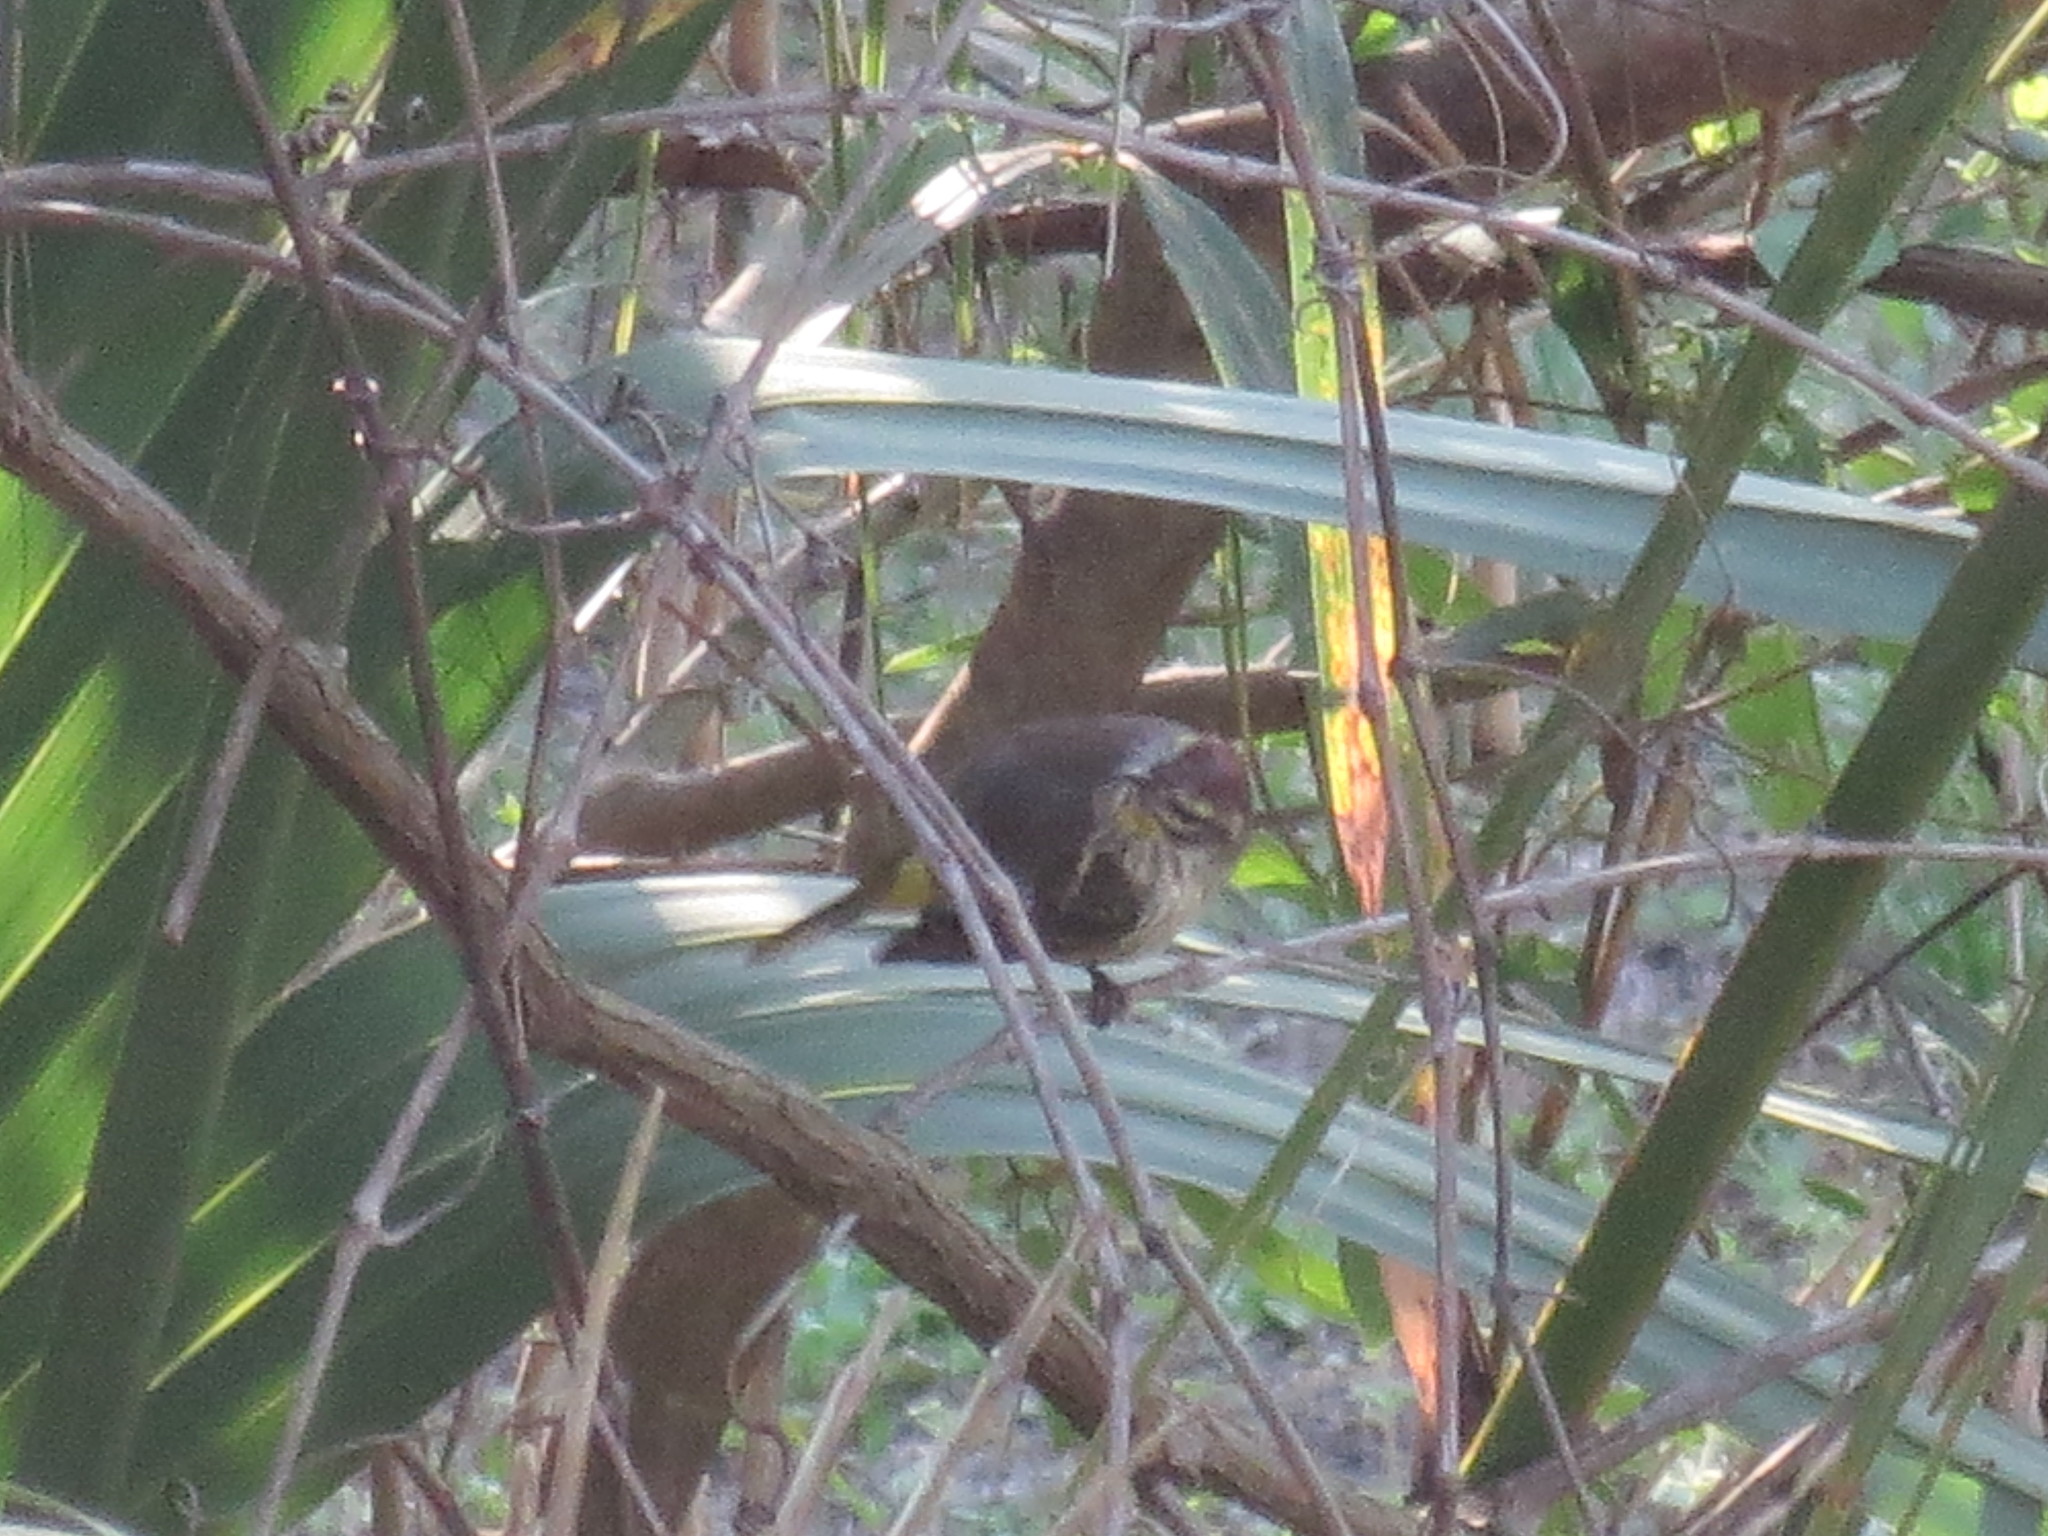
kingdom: Animalia
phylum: Chordata
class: Aves
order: Passeriformes
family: Parulidae
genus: Setophaga
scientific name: Setophaga palmarum
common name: Palm warbler
